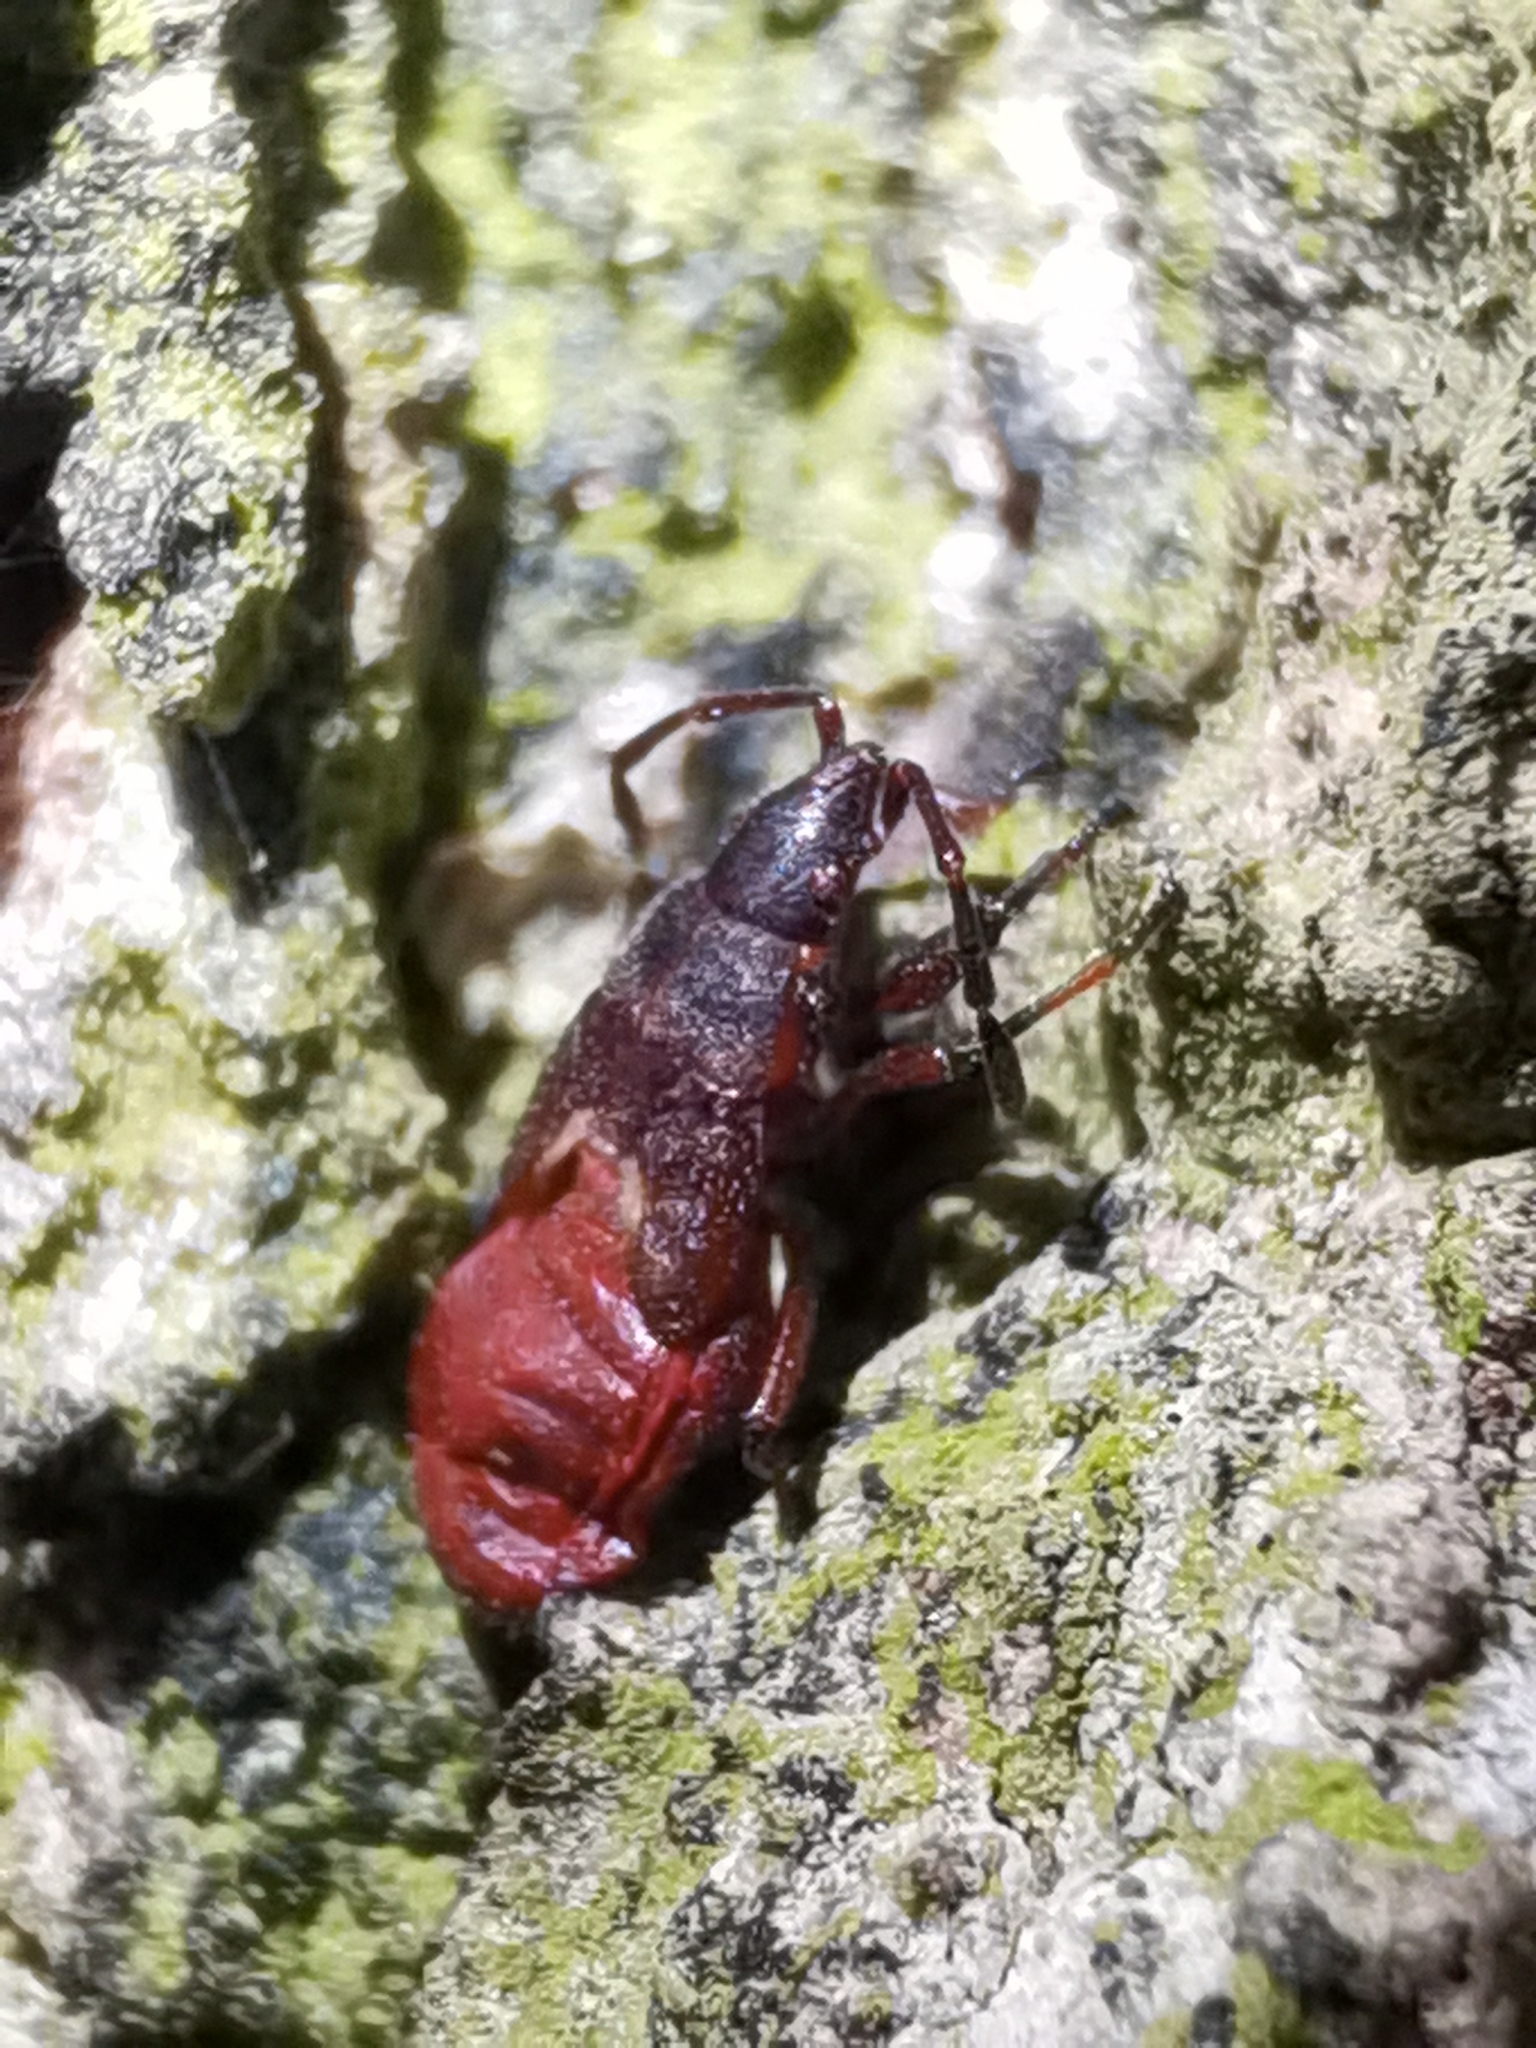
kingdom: Animalia
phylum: Arthropoda
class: Insecta
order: Hemiptera
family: Oxycarenidae
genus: Oxycarenus
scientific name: Oxycarenus lavaterae
